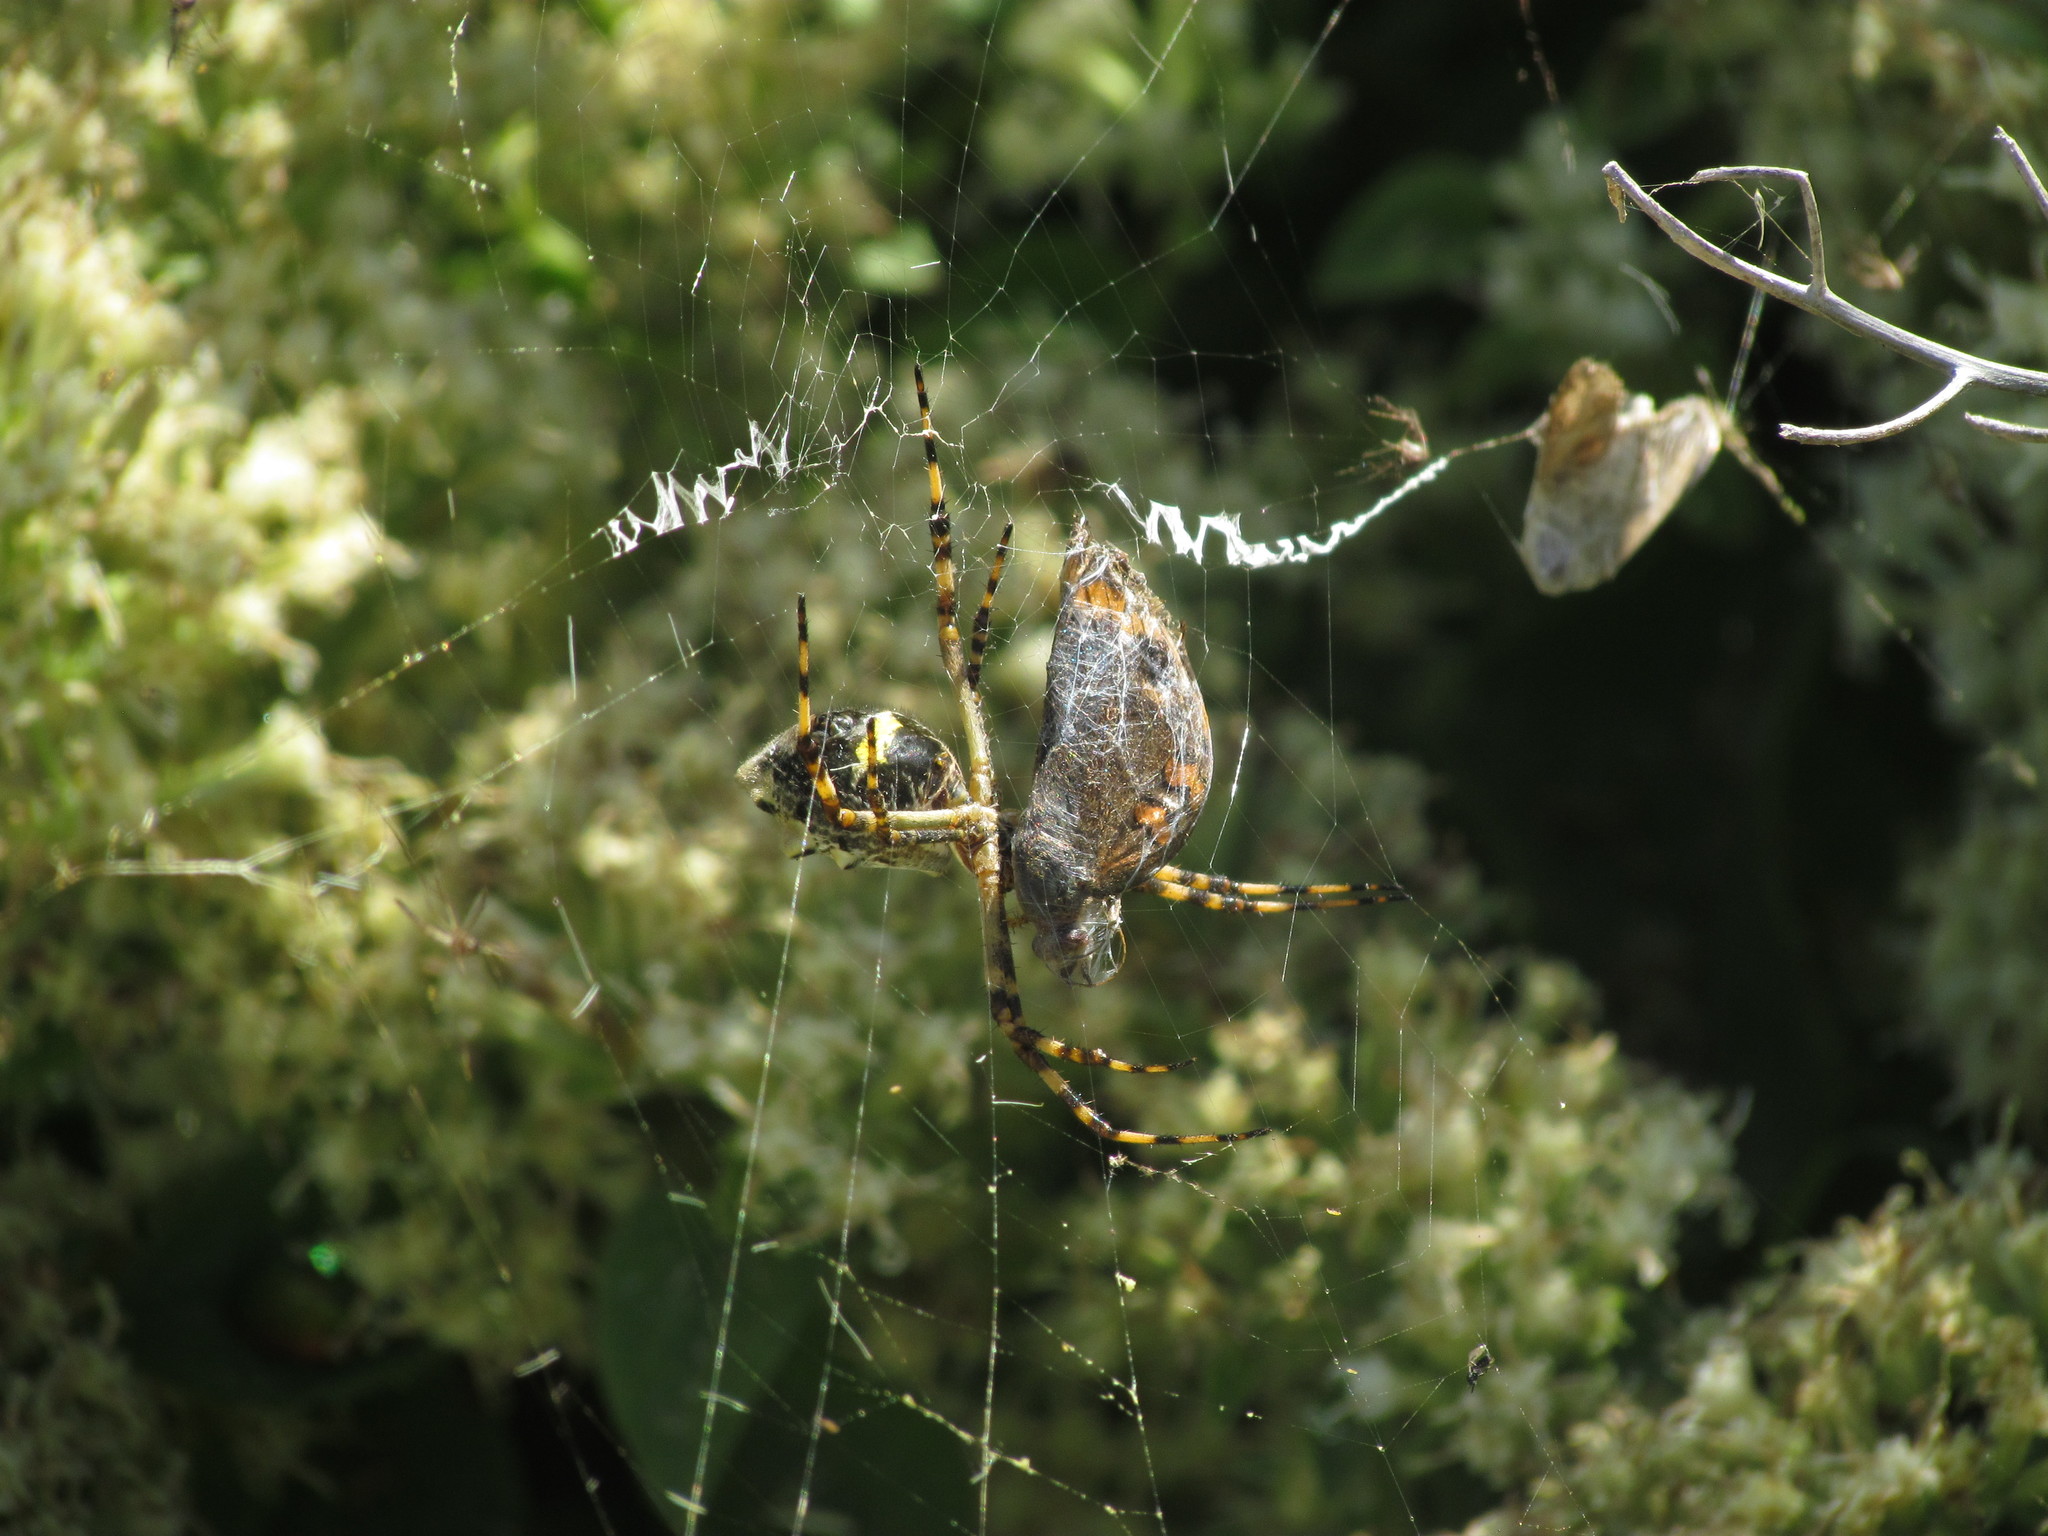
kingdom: Animalia
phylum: Arthropoda
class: Arachnida
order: Araneae
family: Araneidae
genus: Argiope
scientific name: Argiope argentata
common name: Orb weavers
